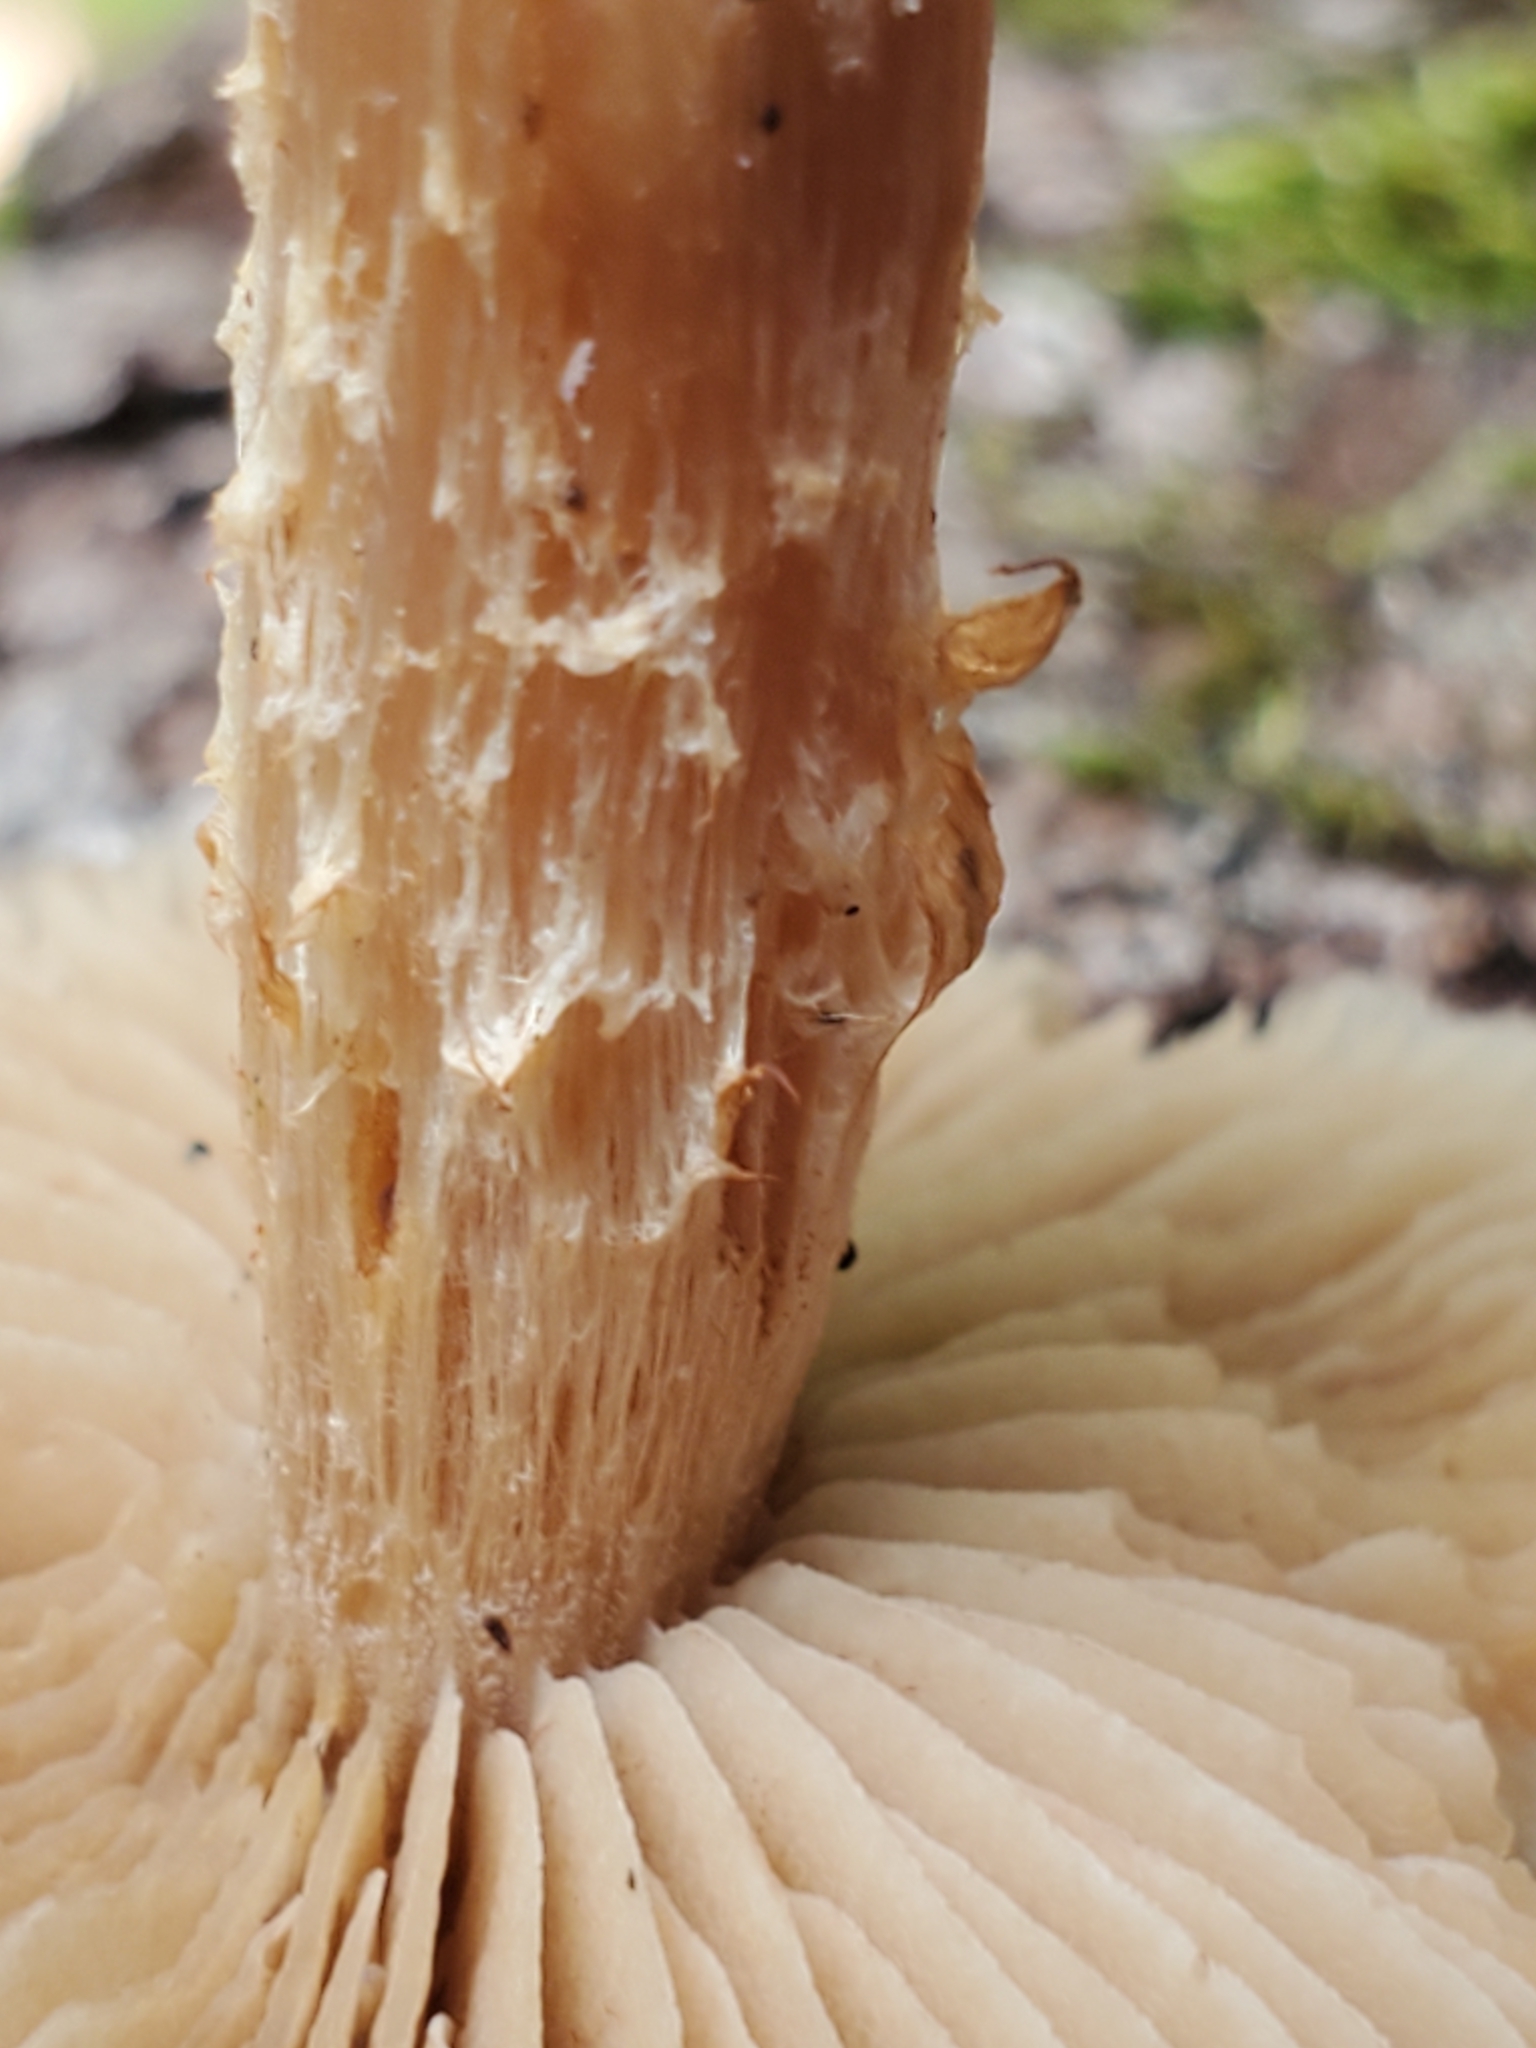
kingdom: Fungi
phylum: Basidiomycota
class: Agaricomycetes
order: Agaricales
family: Strophariaceae
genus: Kuehneromyces
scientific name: Kuehneromyces marginellus
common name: Sheathed woodtuft
